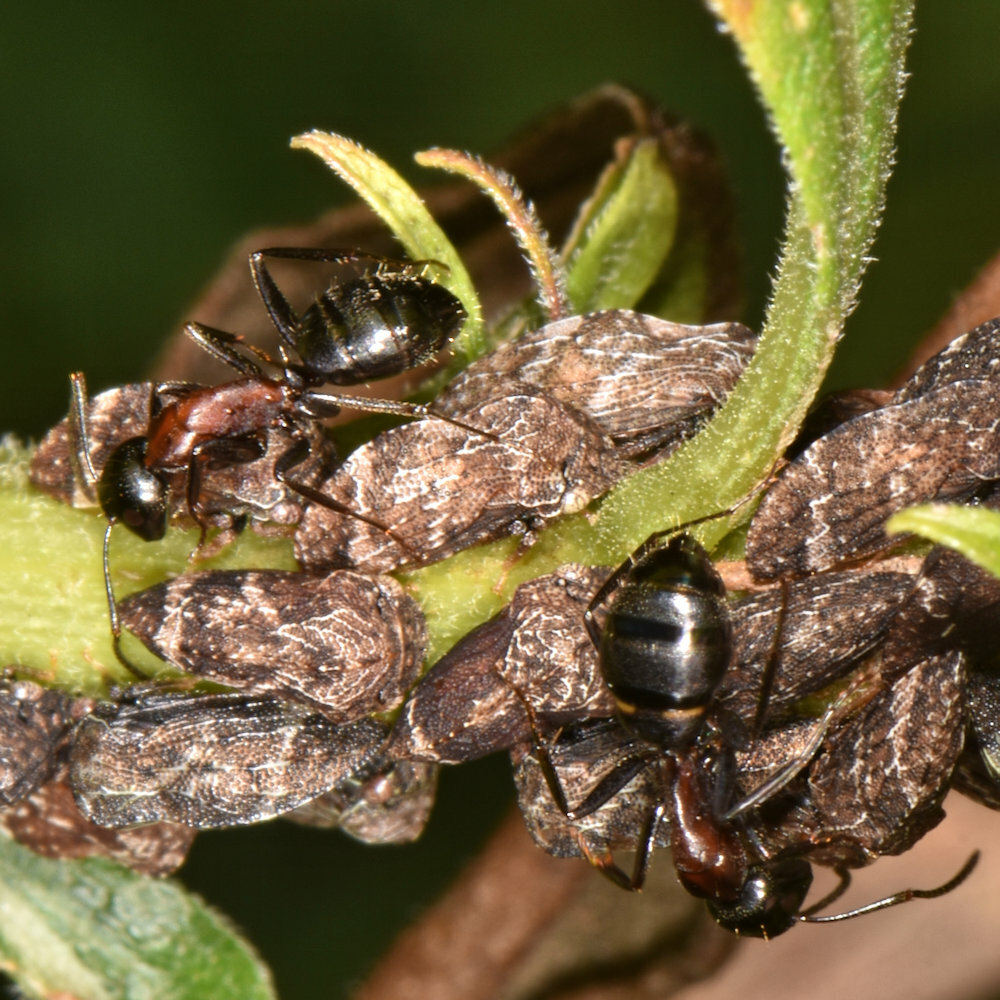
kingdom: Animalia
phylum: Arthropoda
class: Insecta
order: Hymenoptera
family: Formicidae
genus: Camponotus
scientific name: Camponotus novaeboracensis
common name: New york carpenter ant
